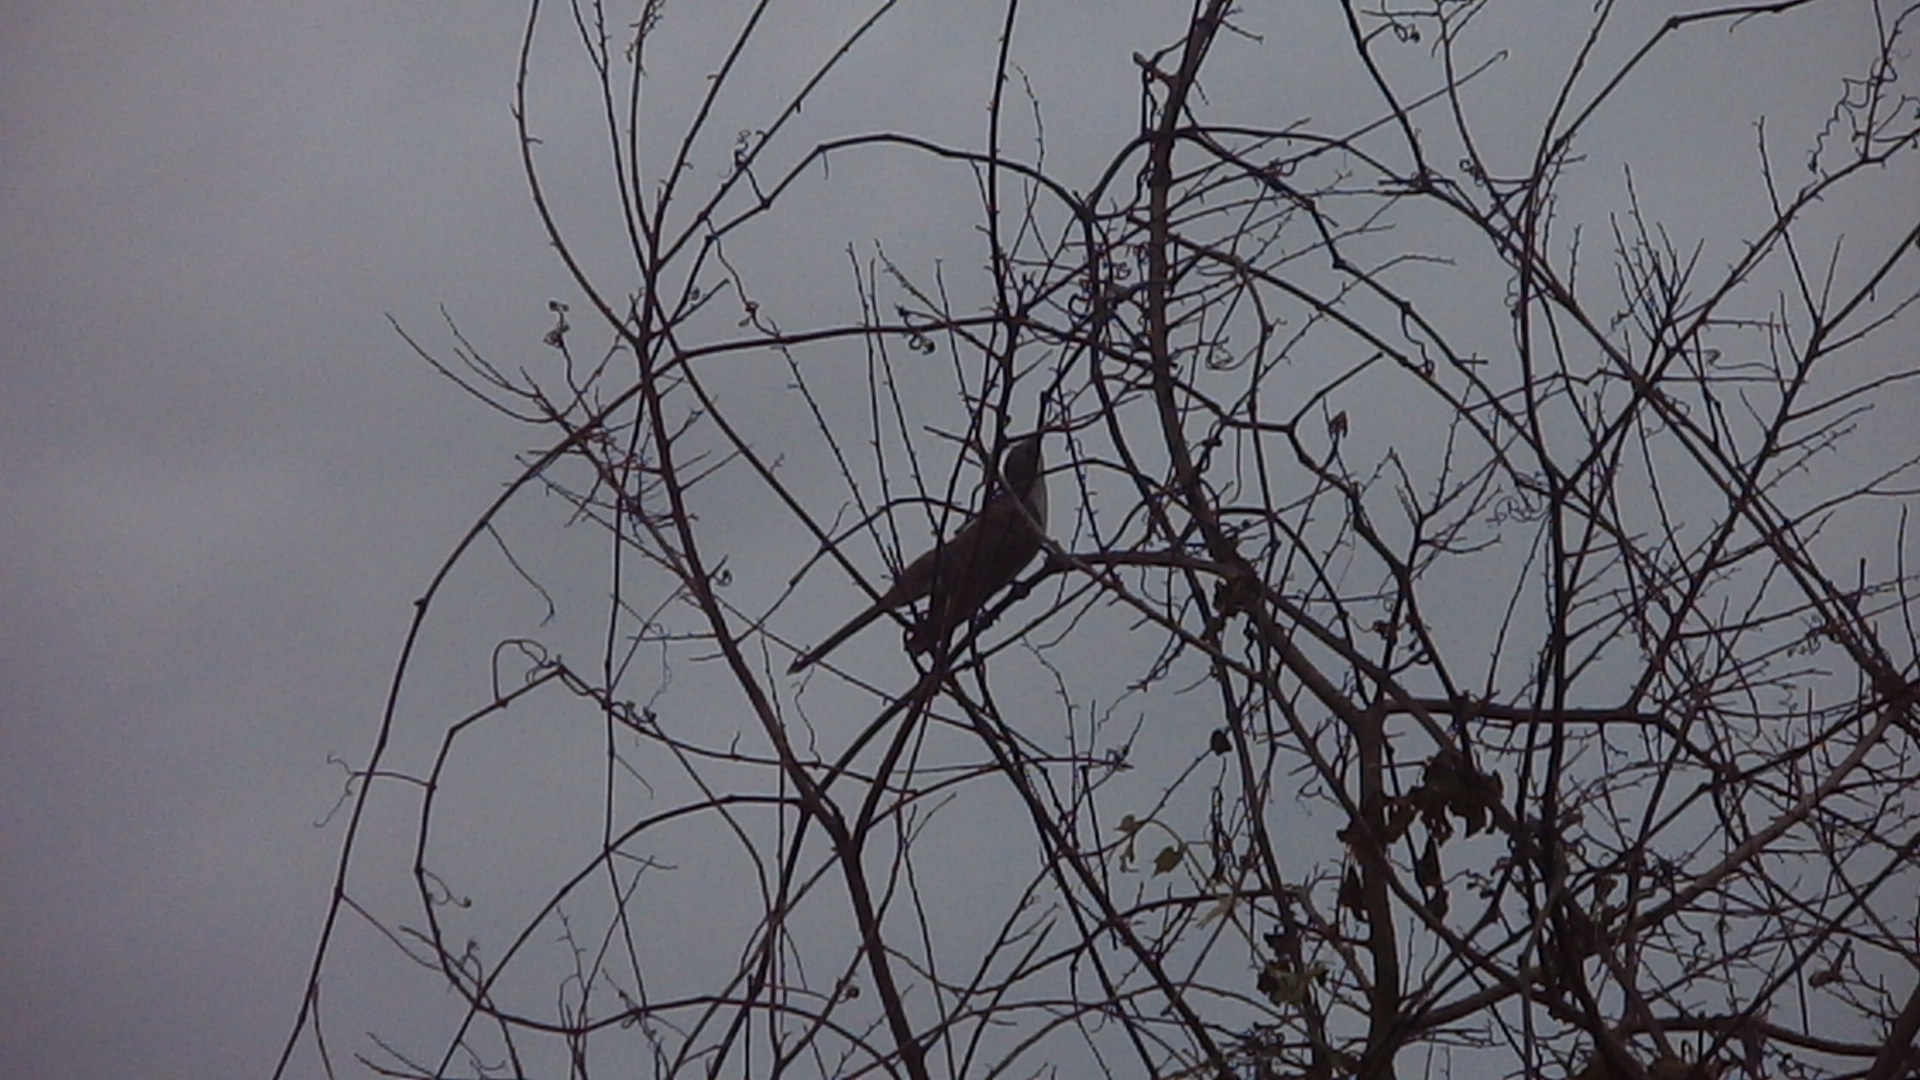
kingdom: Animalia
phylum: Chordata
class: Aves
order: Cuculiformes
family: Cuculidae
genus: Coccyzus
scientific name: Coccyzus americanus
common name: Yellow-billed cuckoo
